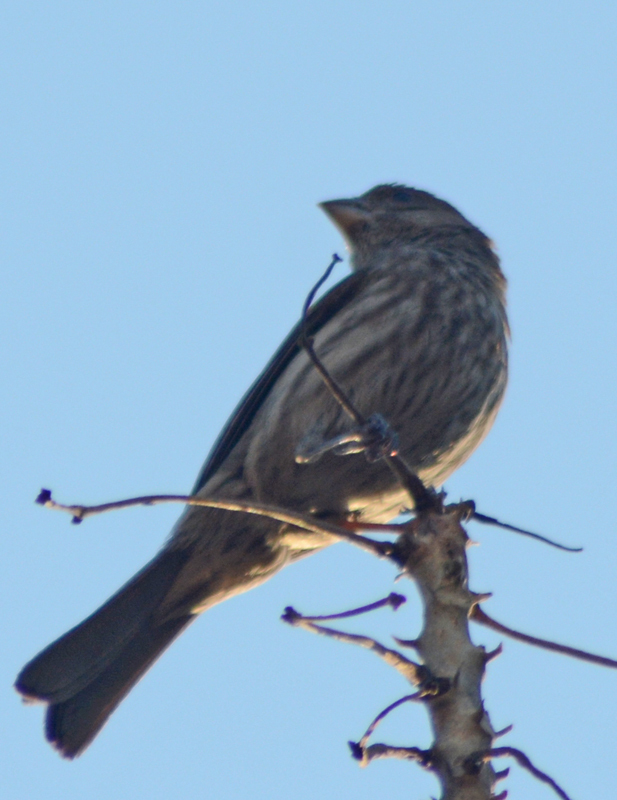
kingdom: Animalia
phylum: Chordata
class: Aves
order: Passeriformes
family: Fringillidae
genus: Haemorhous
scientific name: Haemorhous mexicanus
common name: House finch
